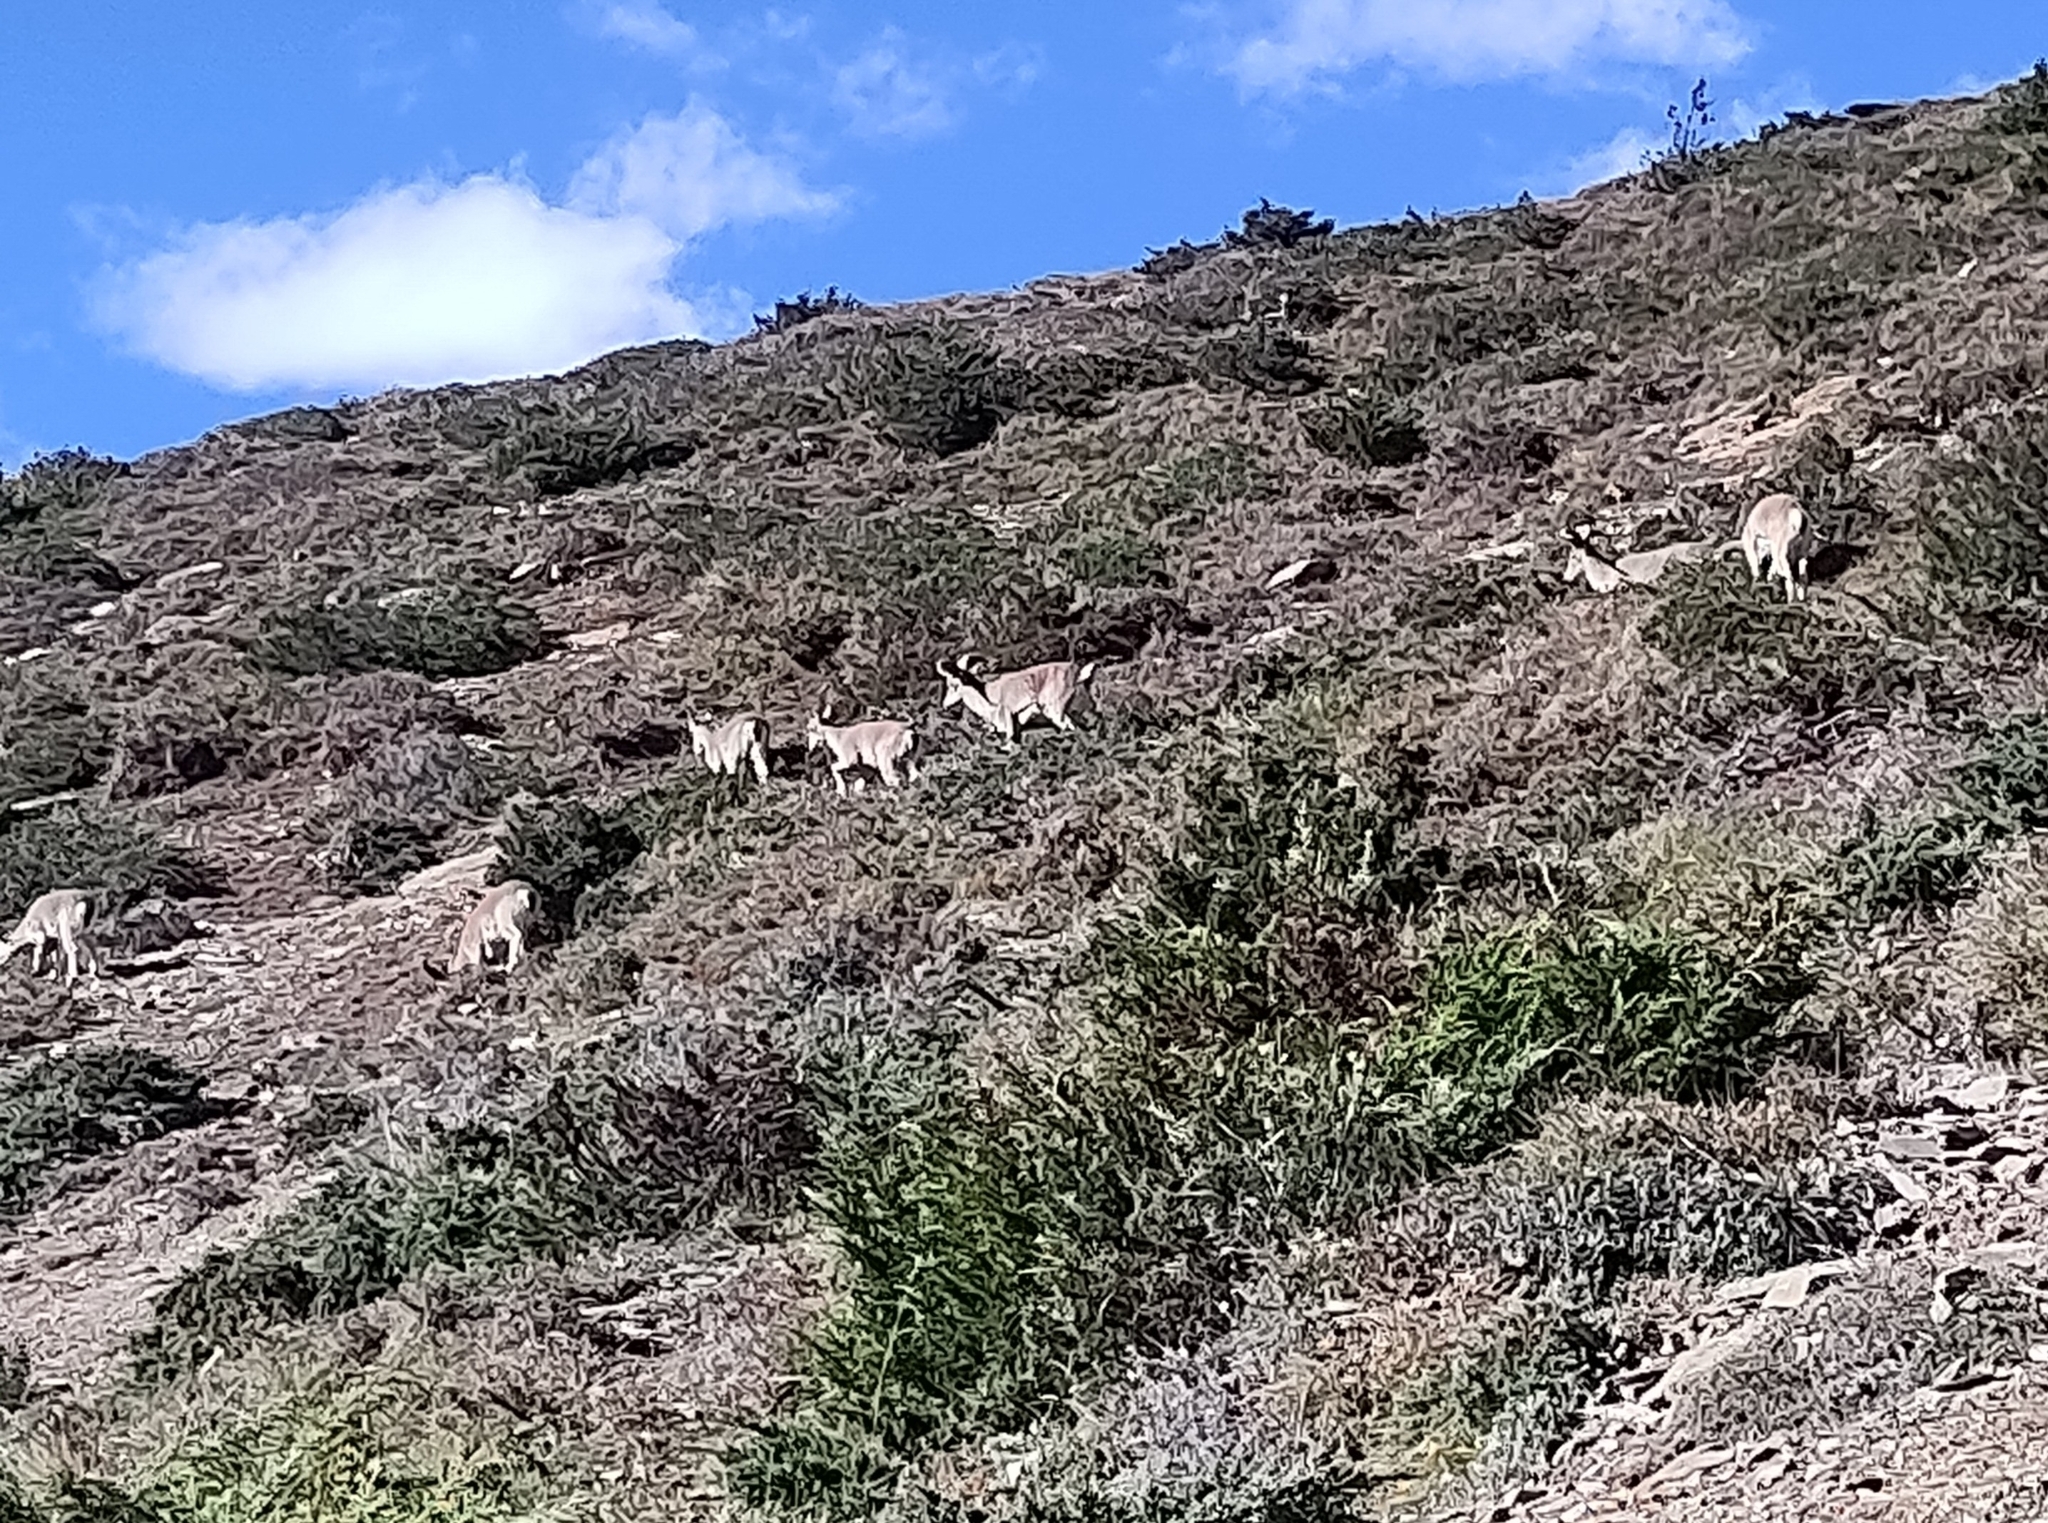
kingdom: Animalia
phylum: Chordata
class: Mammalia
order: Artiodactyla
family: Bovidae
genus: Pseudois
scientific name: Pseudois nayaur
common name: Bharal
